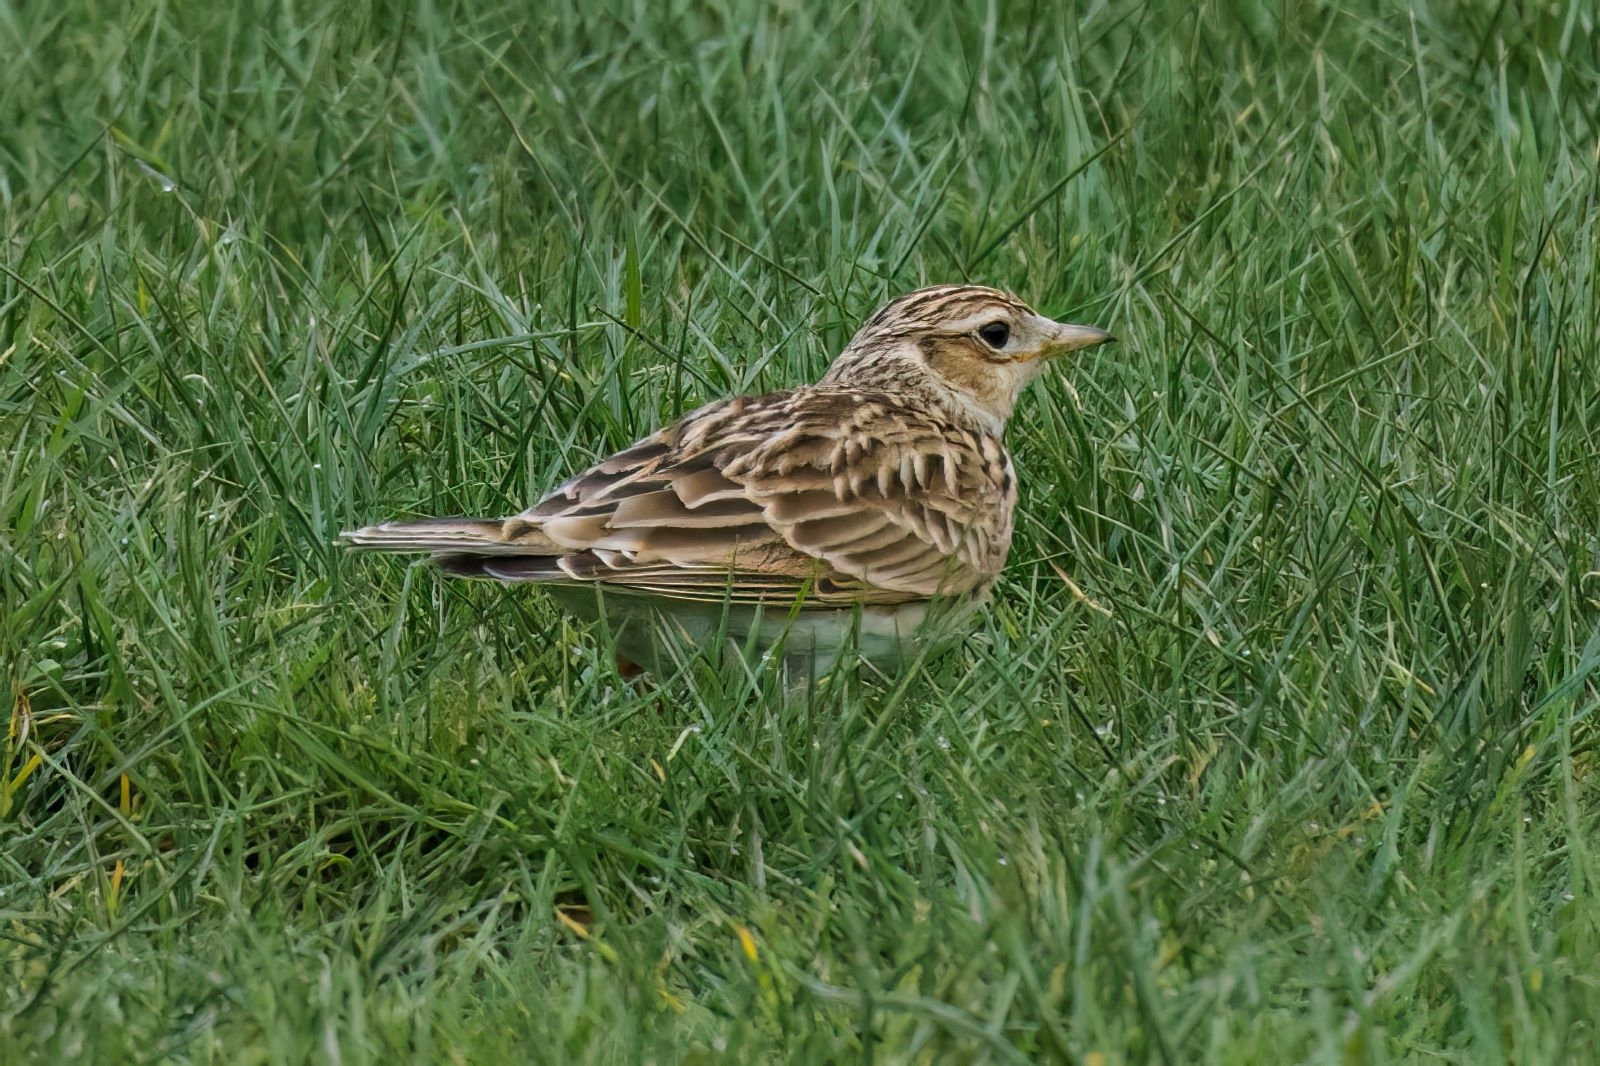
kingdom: Animalia
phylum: Chordata
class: Aves
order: Passeriformes
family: Alaudidae
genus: Alauda
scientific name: Alauda arvensis
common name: Eurasian skylark
